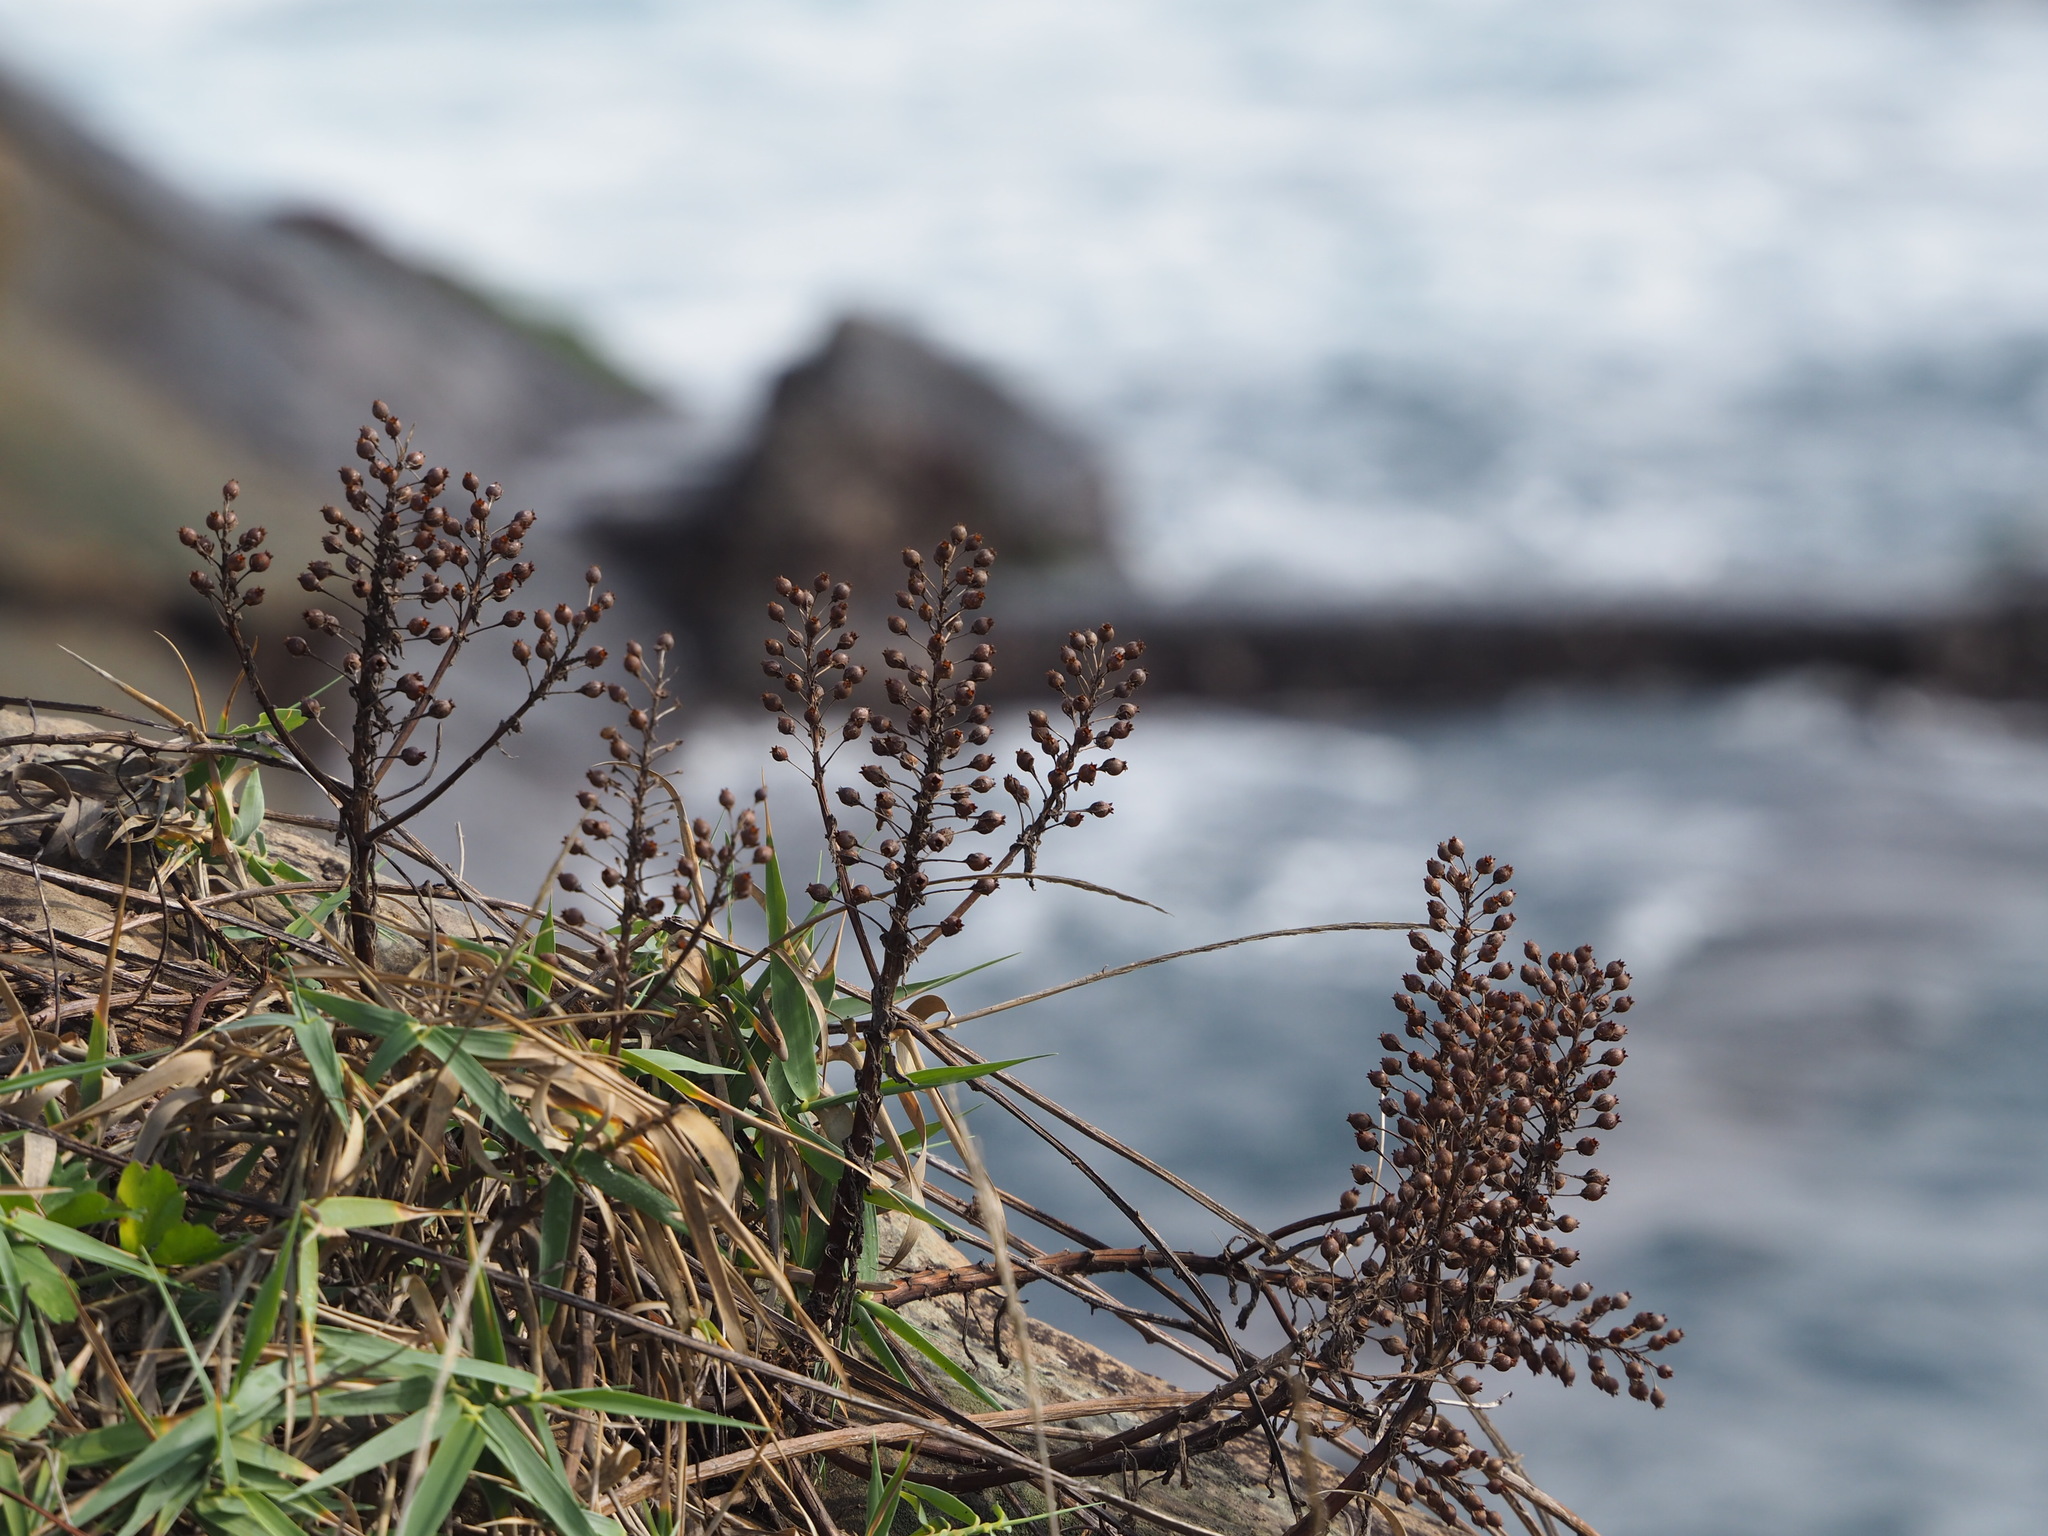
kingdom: Plantae
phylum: Tracheophyta
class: Magnoliopsida
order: Ericales
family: Primulaceae
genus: Lysimachia
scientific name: Lysimachia mauritiana
